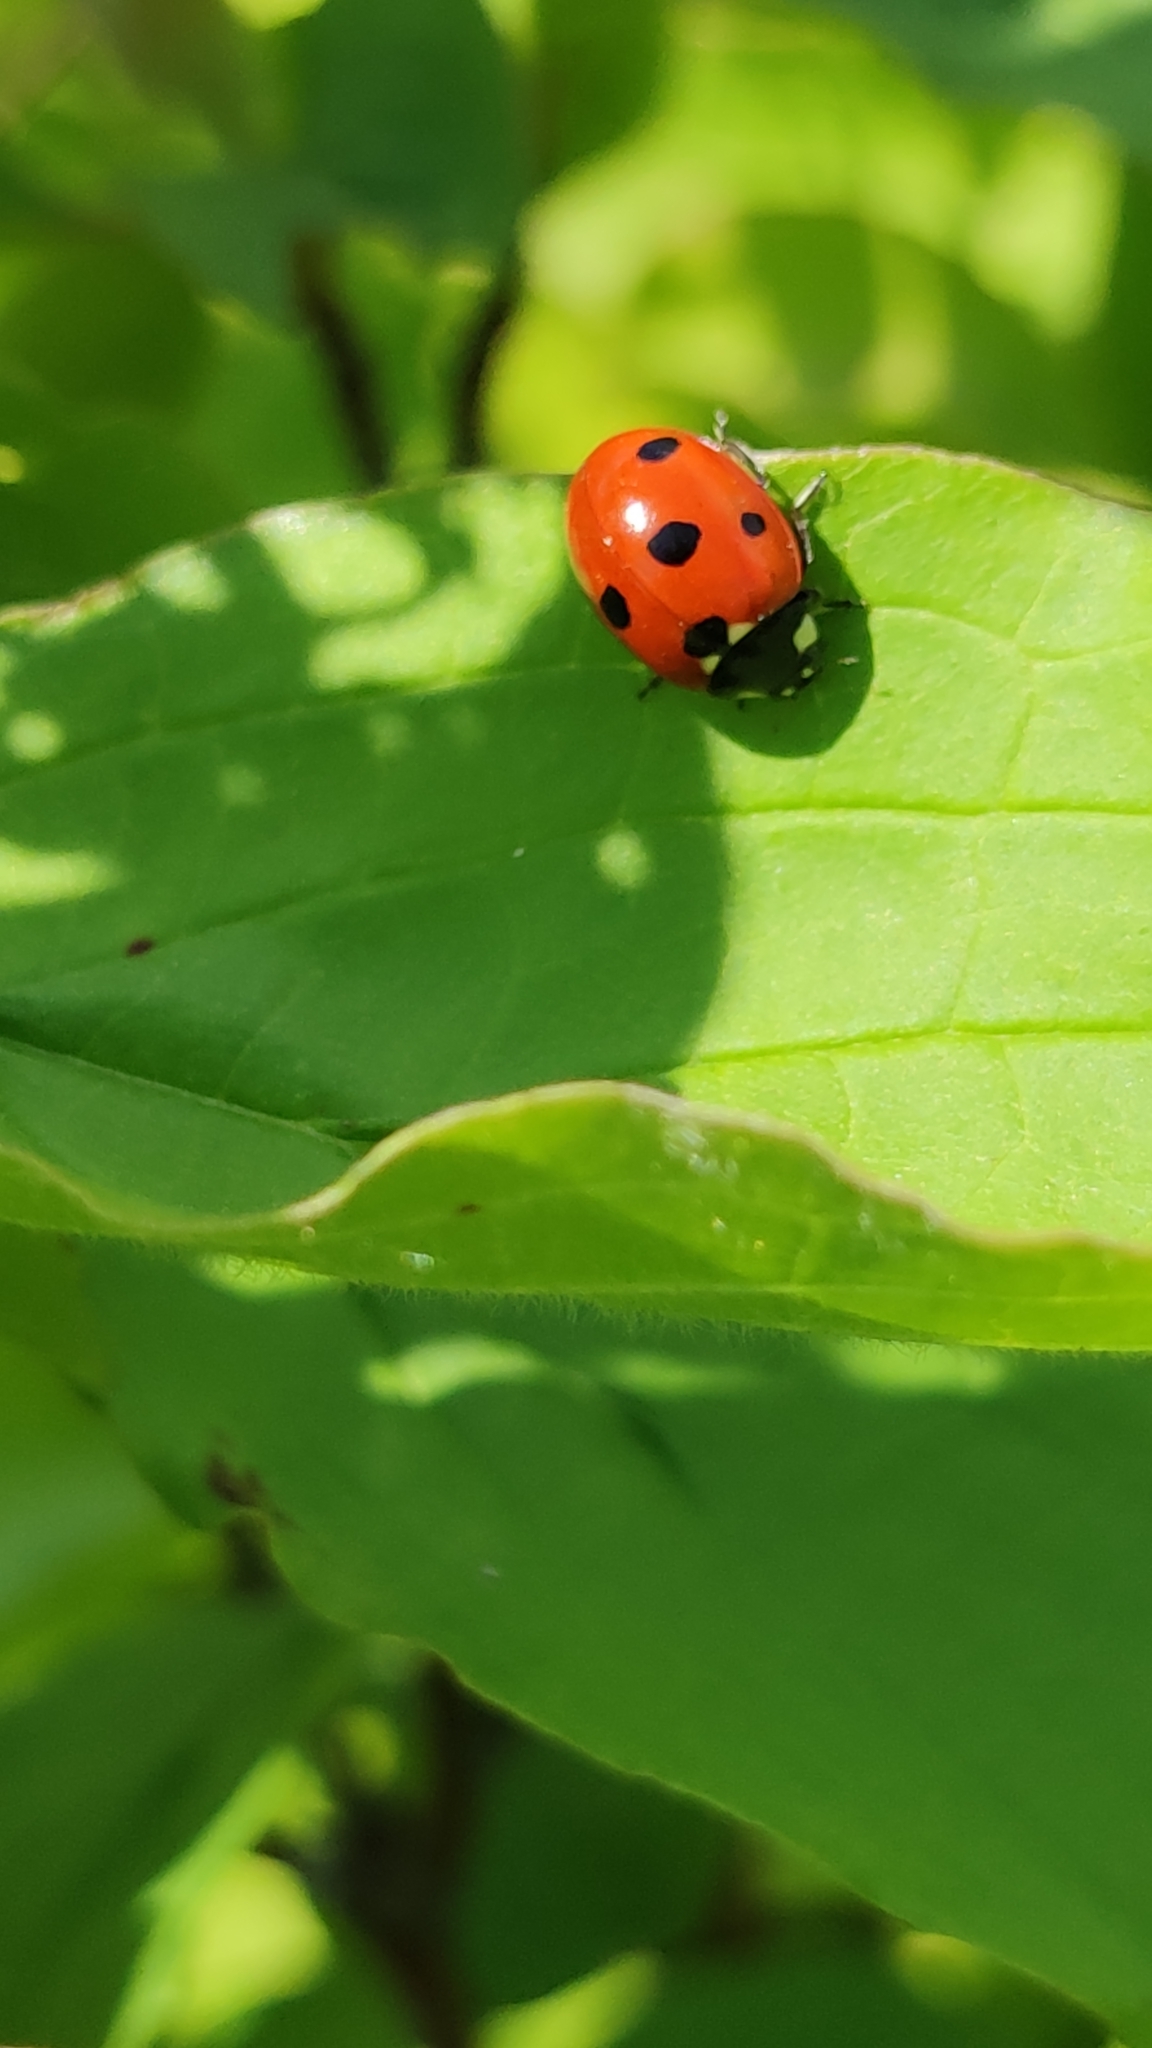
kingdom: Animalia
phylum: Arthropoda
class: Insecta
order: Coleoptera
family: Coccinellidae
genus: Coccinella
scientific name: Coccinella septempunctata
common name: Sevenspotted lady beetle
